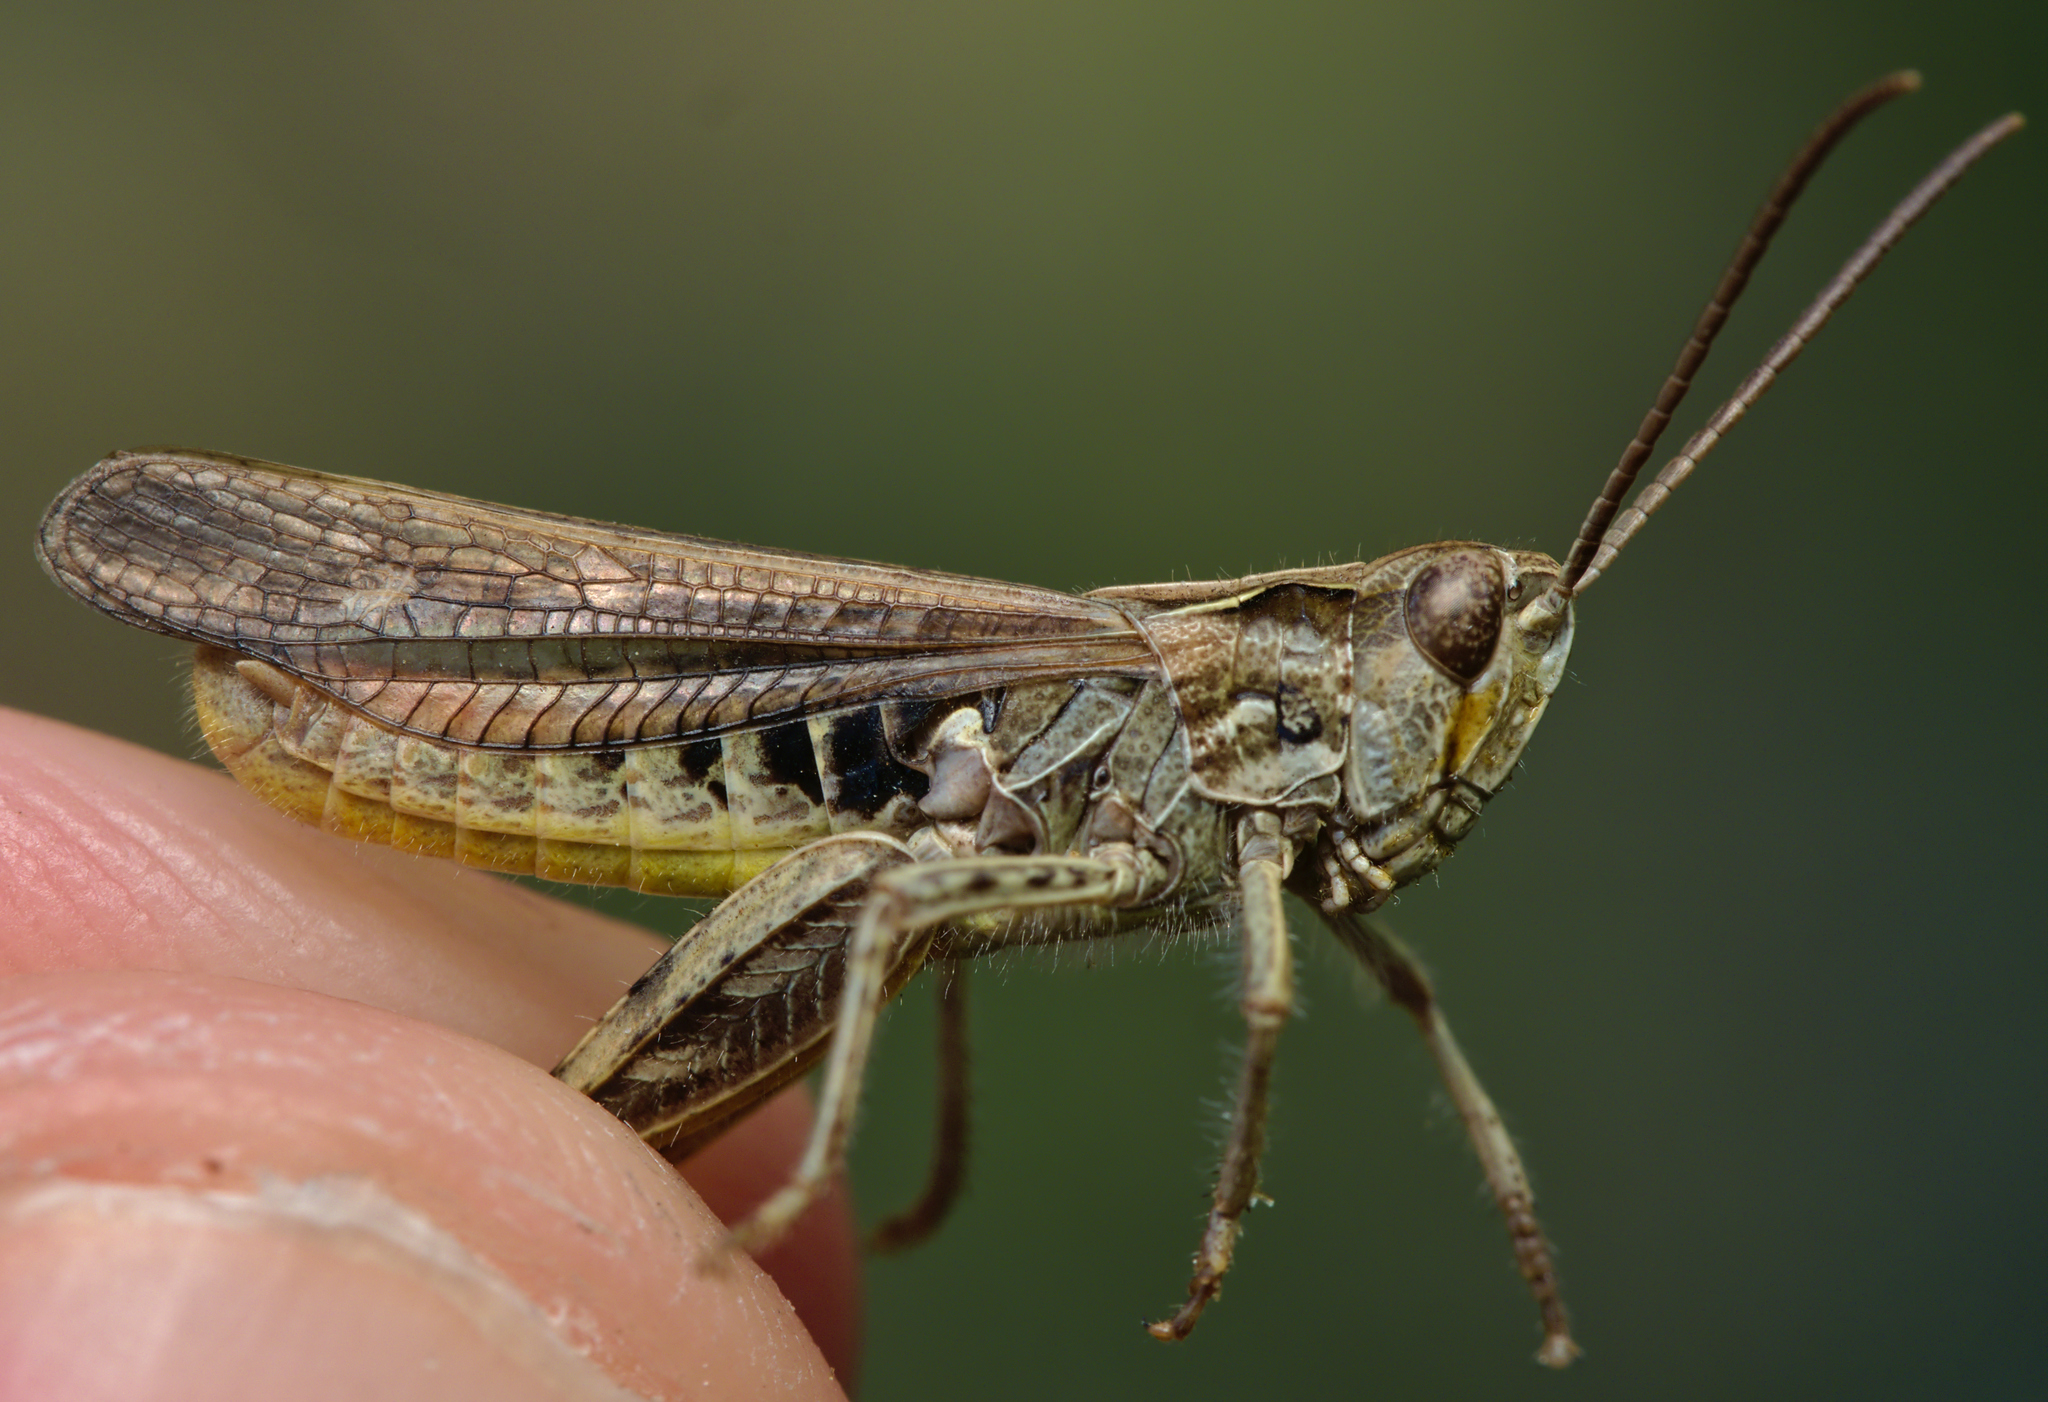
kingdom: Animalia
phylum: Arthropoda
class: Insecta
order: Orthoptera
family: Acrididae
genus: Chorthippus
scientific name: Chorthippus biguttulus
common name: Bow-winged grasshopper
